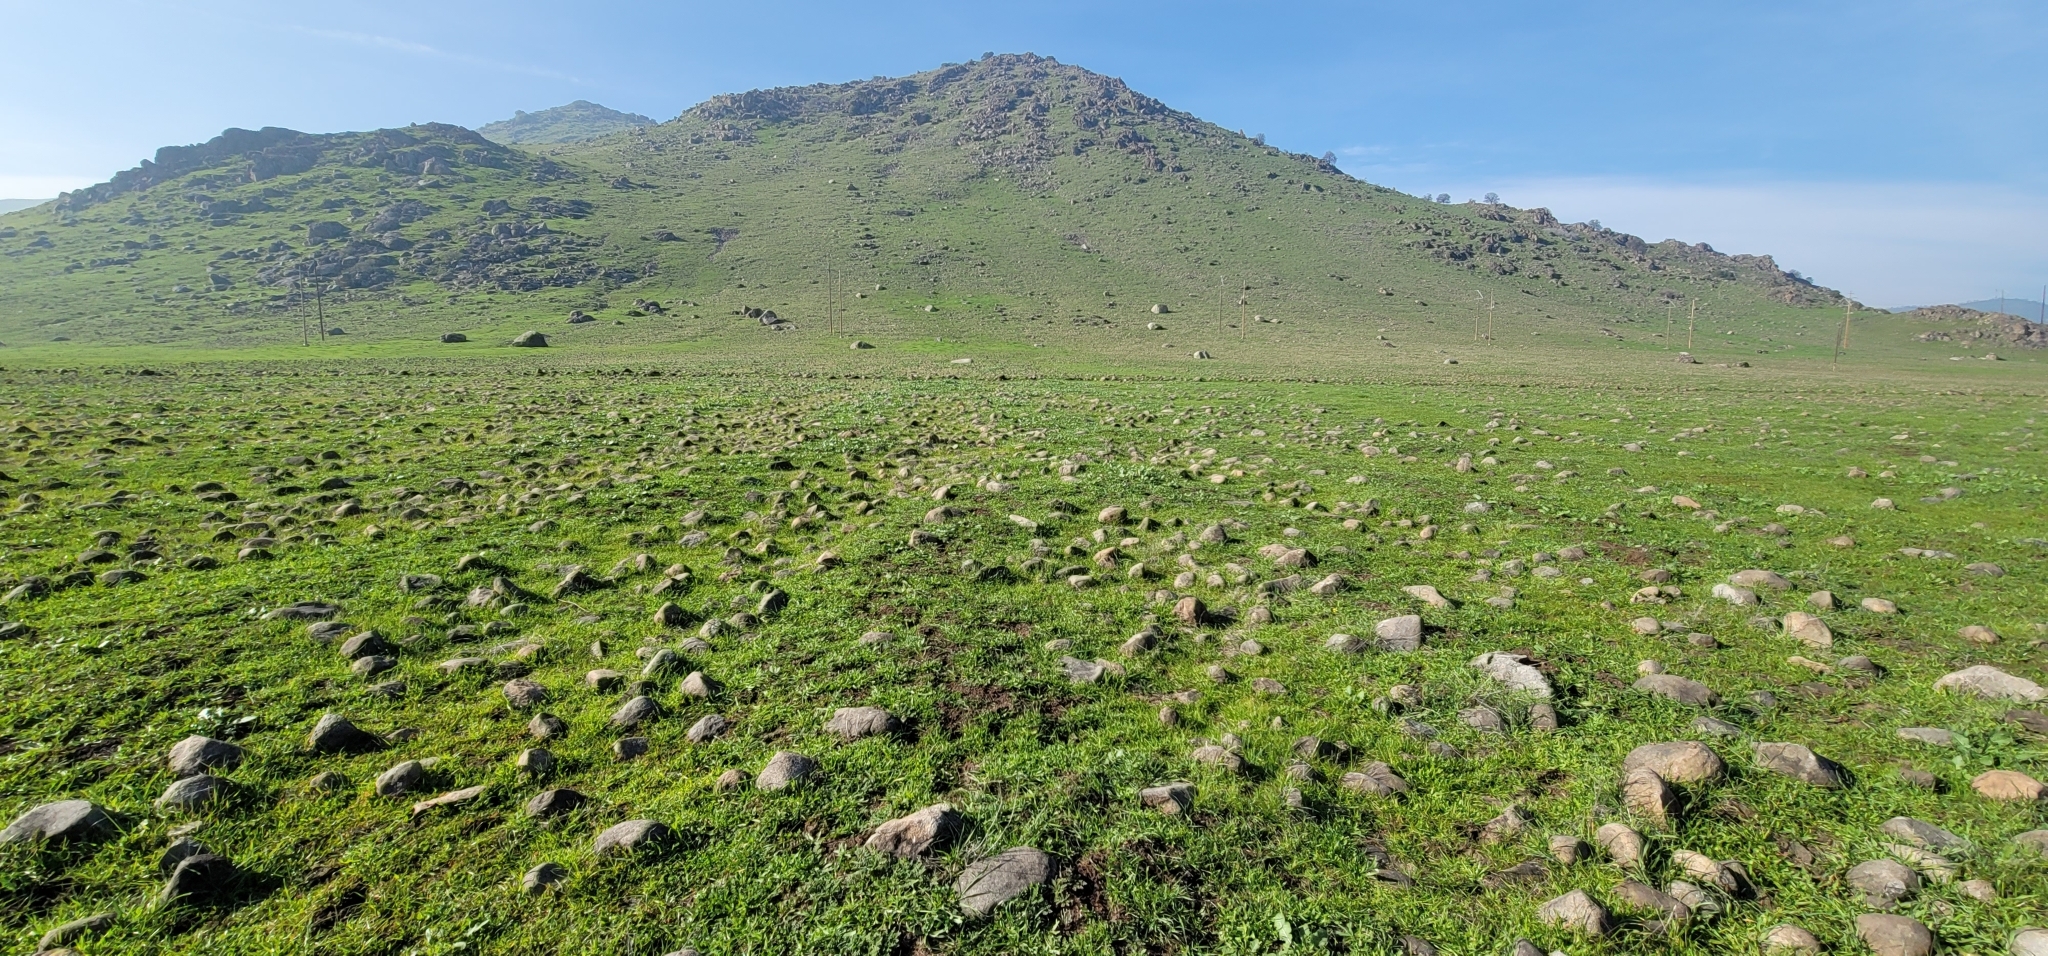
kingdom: Plantae
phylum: Tracheophyta
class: Magnoliopsida
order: Asterales
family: Asteraceae
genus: Hesperevax
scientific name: Hesperevax caulescens
